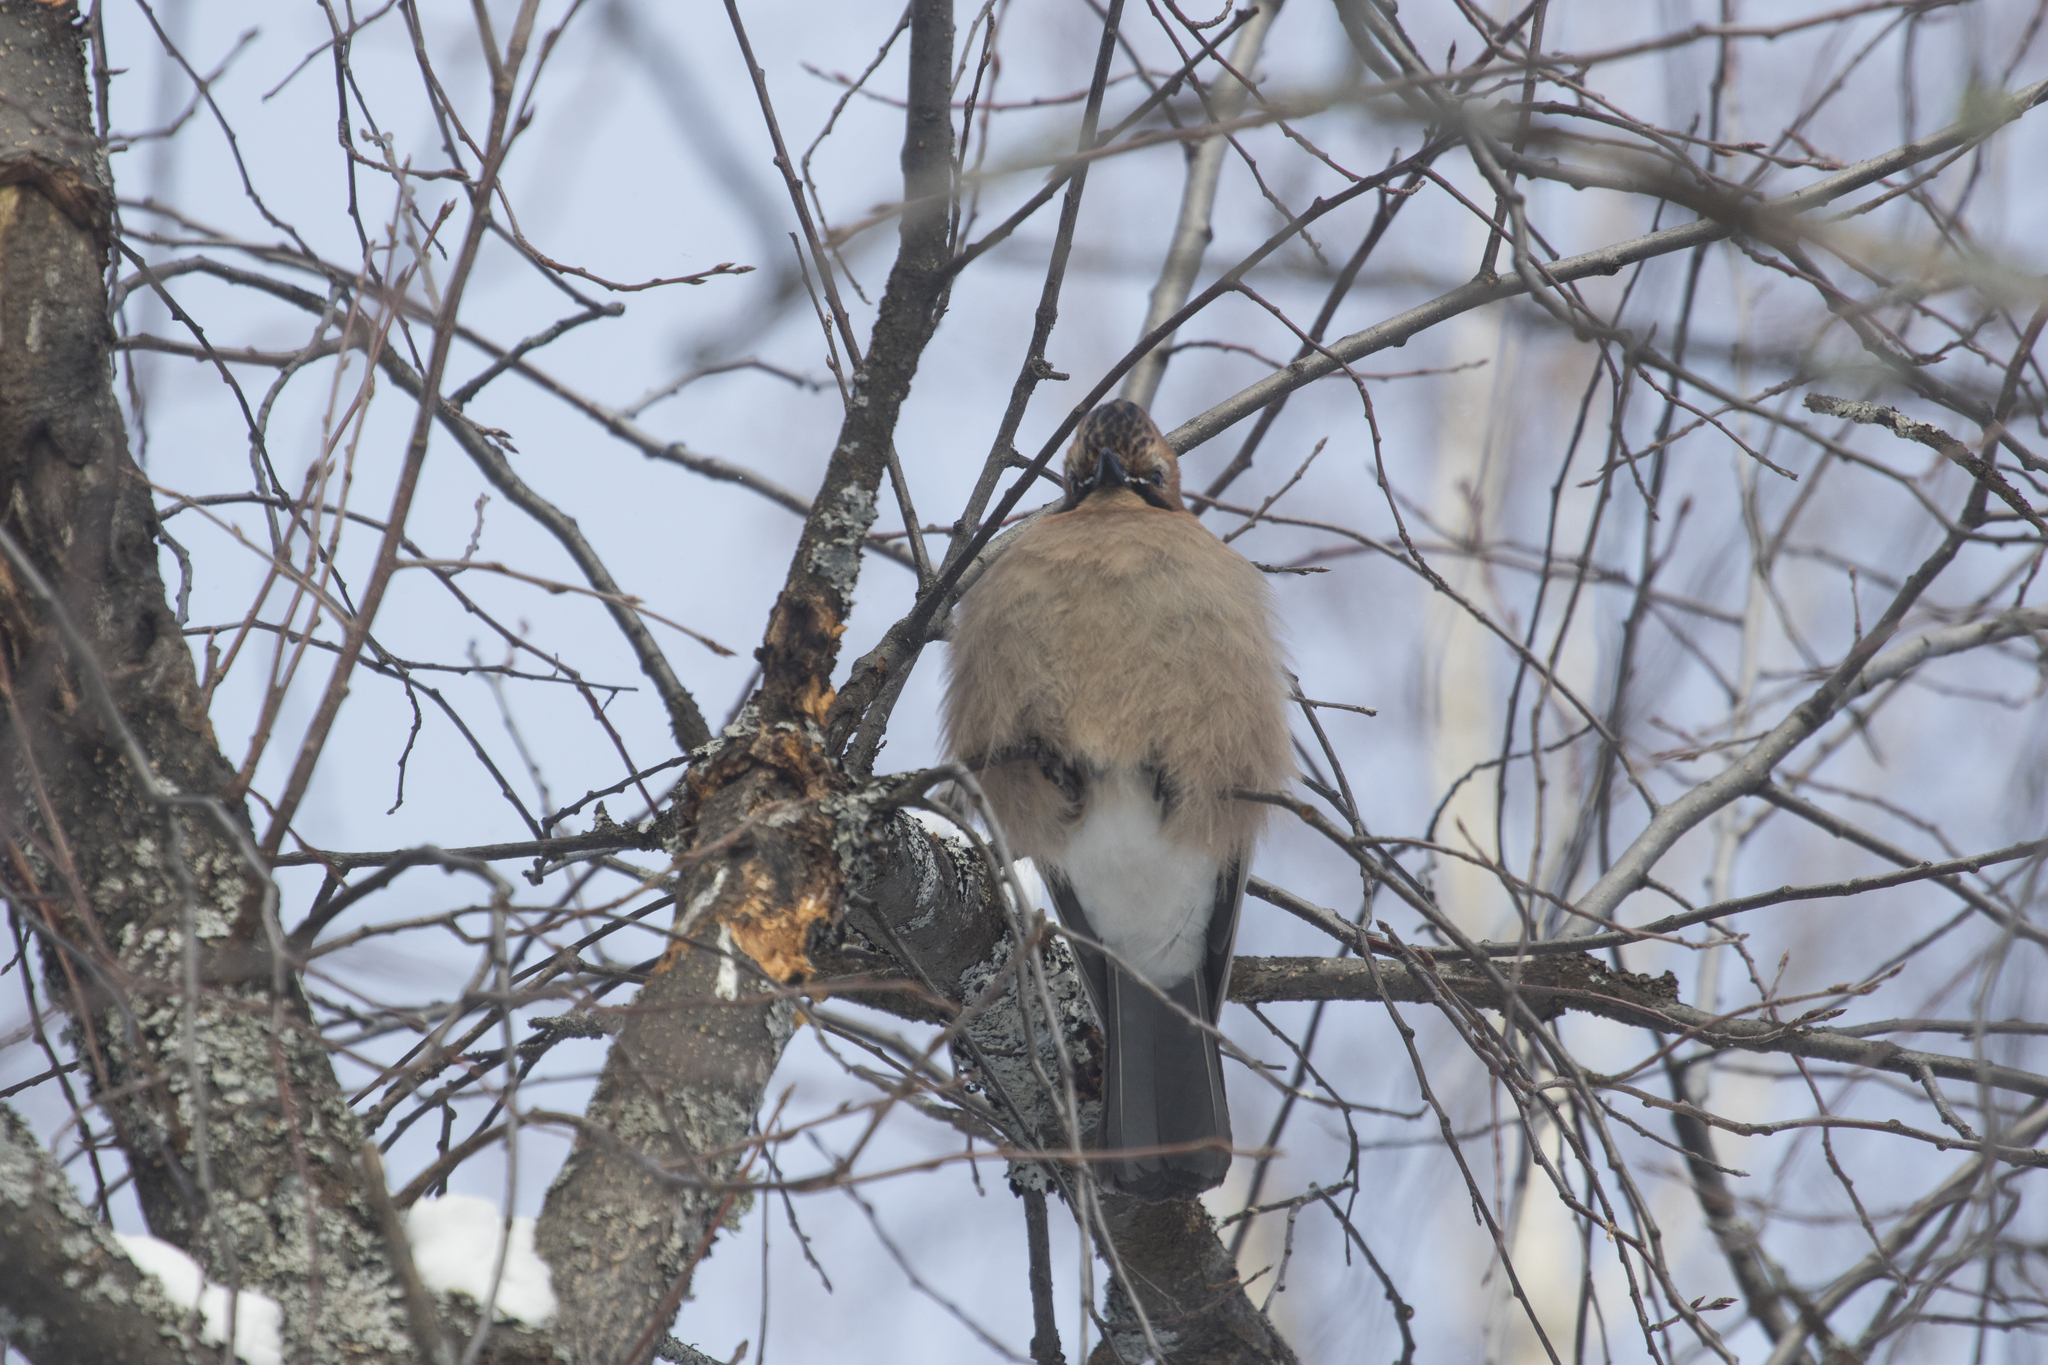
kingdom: Animalia
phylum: Chordata
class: Aves
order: Passeriformes
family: Corvidae
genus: Garrulus
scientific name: Garrulus glandarius
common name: Eurasian jay
